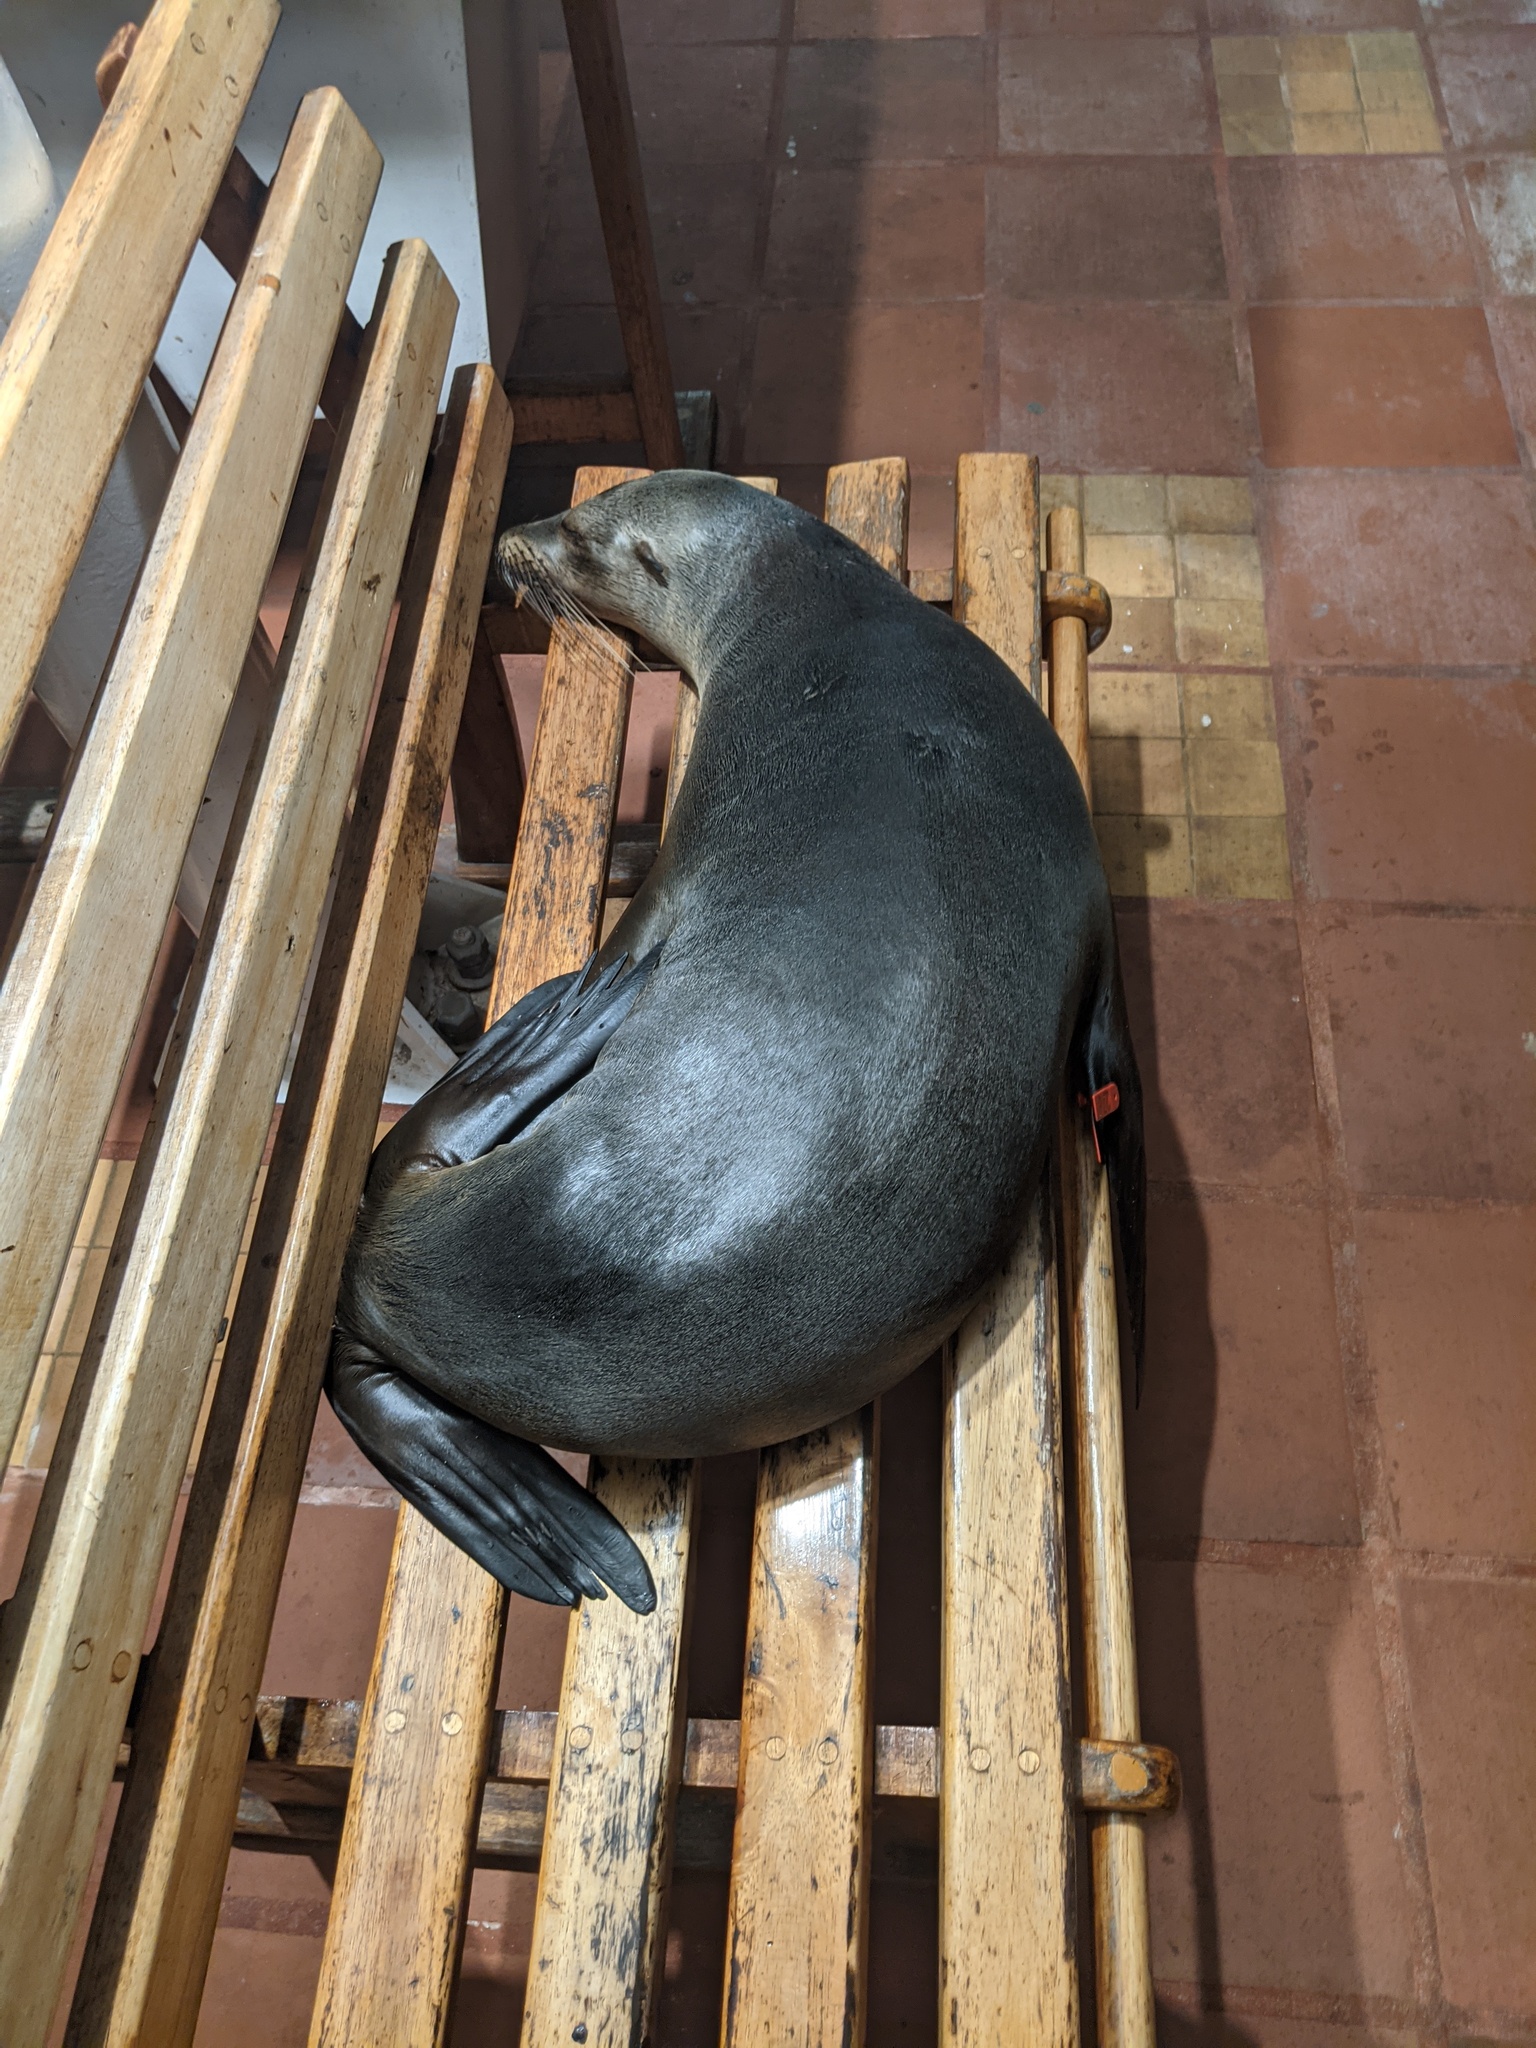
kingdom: Animalia
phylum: Chordata
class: Mammalia
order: Carnivora
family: Otariidae
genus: Zalophus
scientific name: Zalophus wollebaeki
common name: Galapagos sea lion
